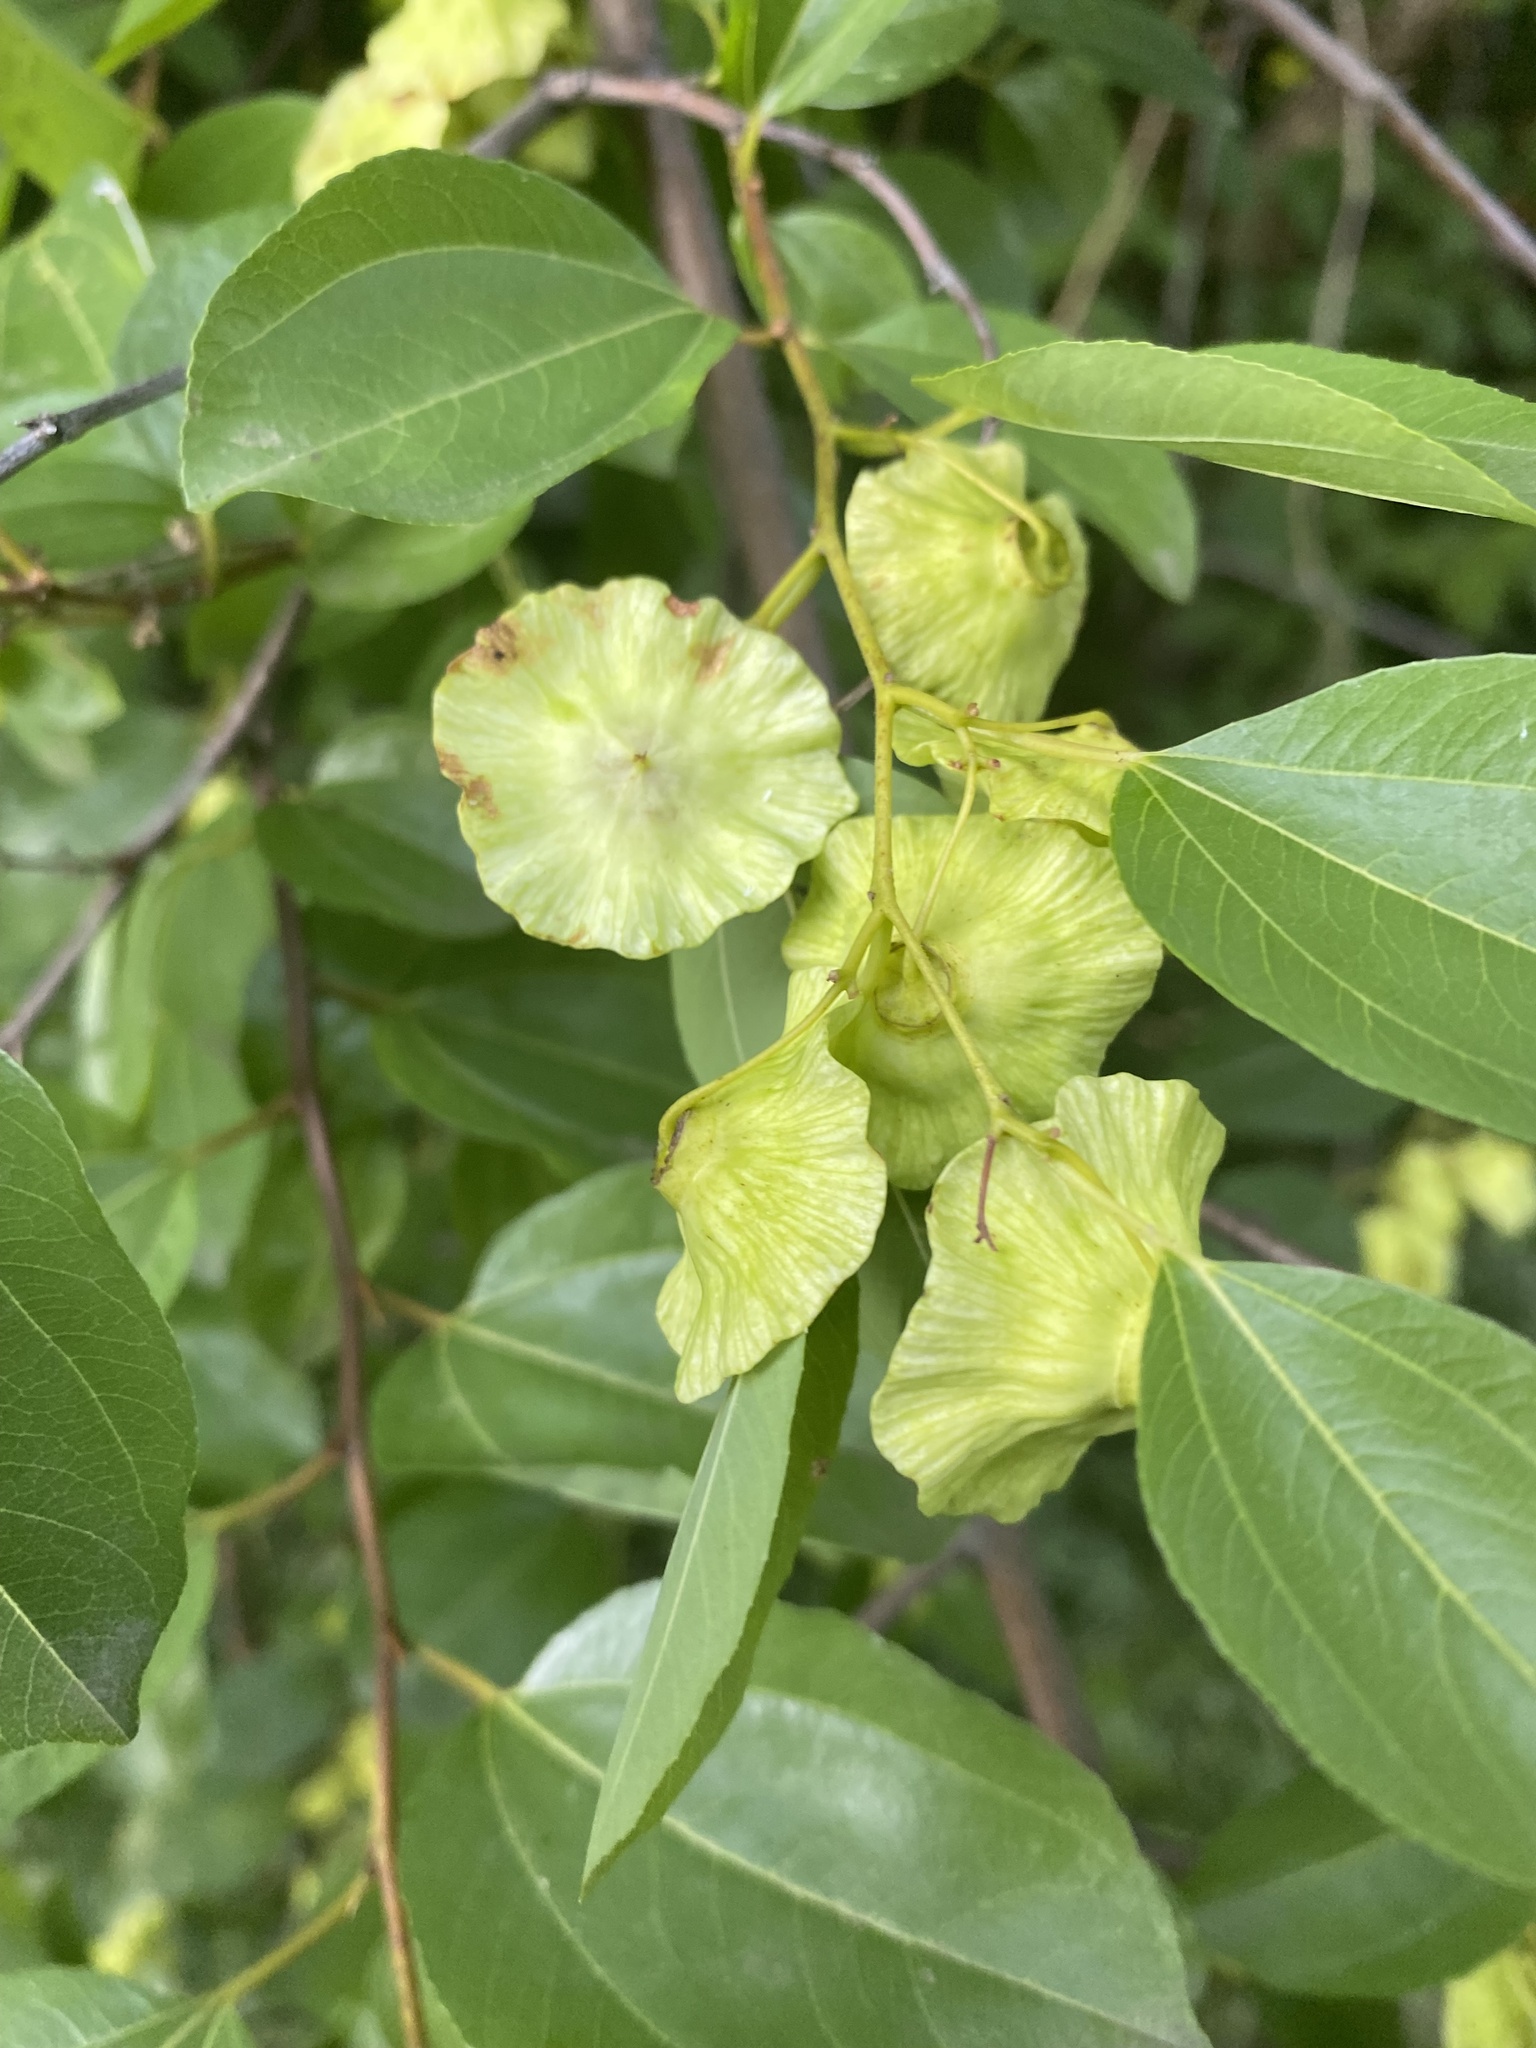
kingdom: Plantae
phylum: Tracheophyta
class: Magnoliopsida
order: Rosales
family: Rhamnaceae
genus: Paliurus
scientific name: Paliurus spina-christi
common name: Jeruselem thorn
